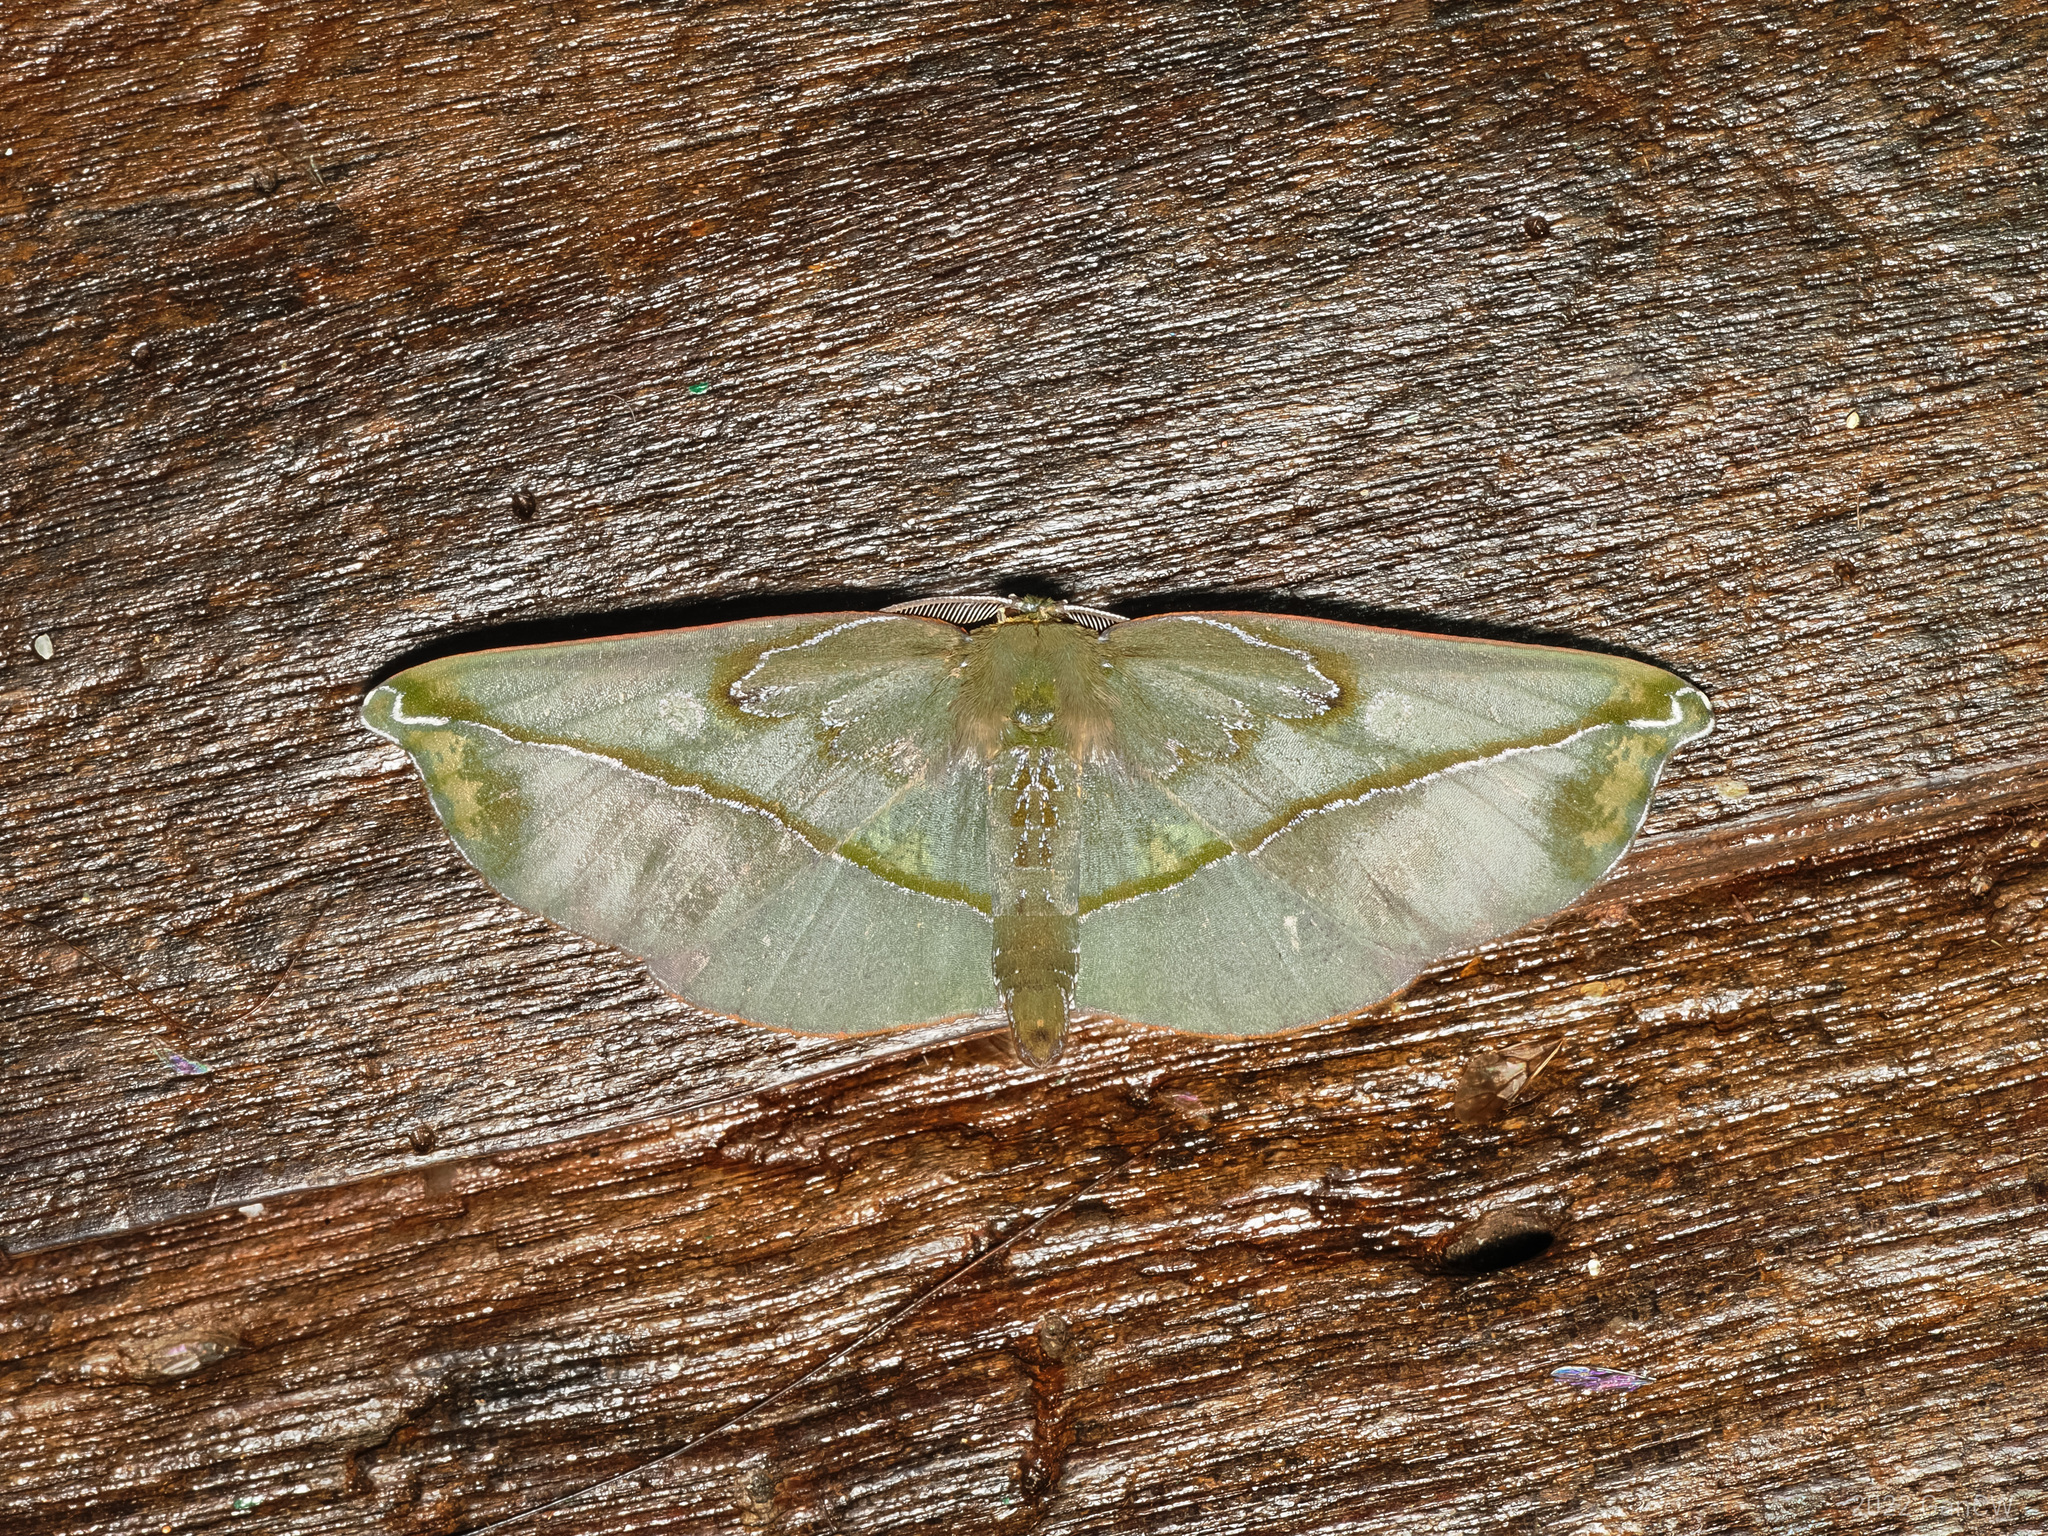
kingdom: Animalia
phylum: Arthropoda
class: Insecta
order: Lepidoptera
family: Geometridae
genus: Omiza
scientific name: Omiza lycoraria
